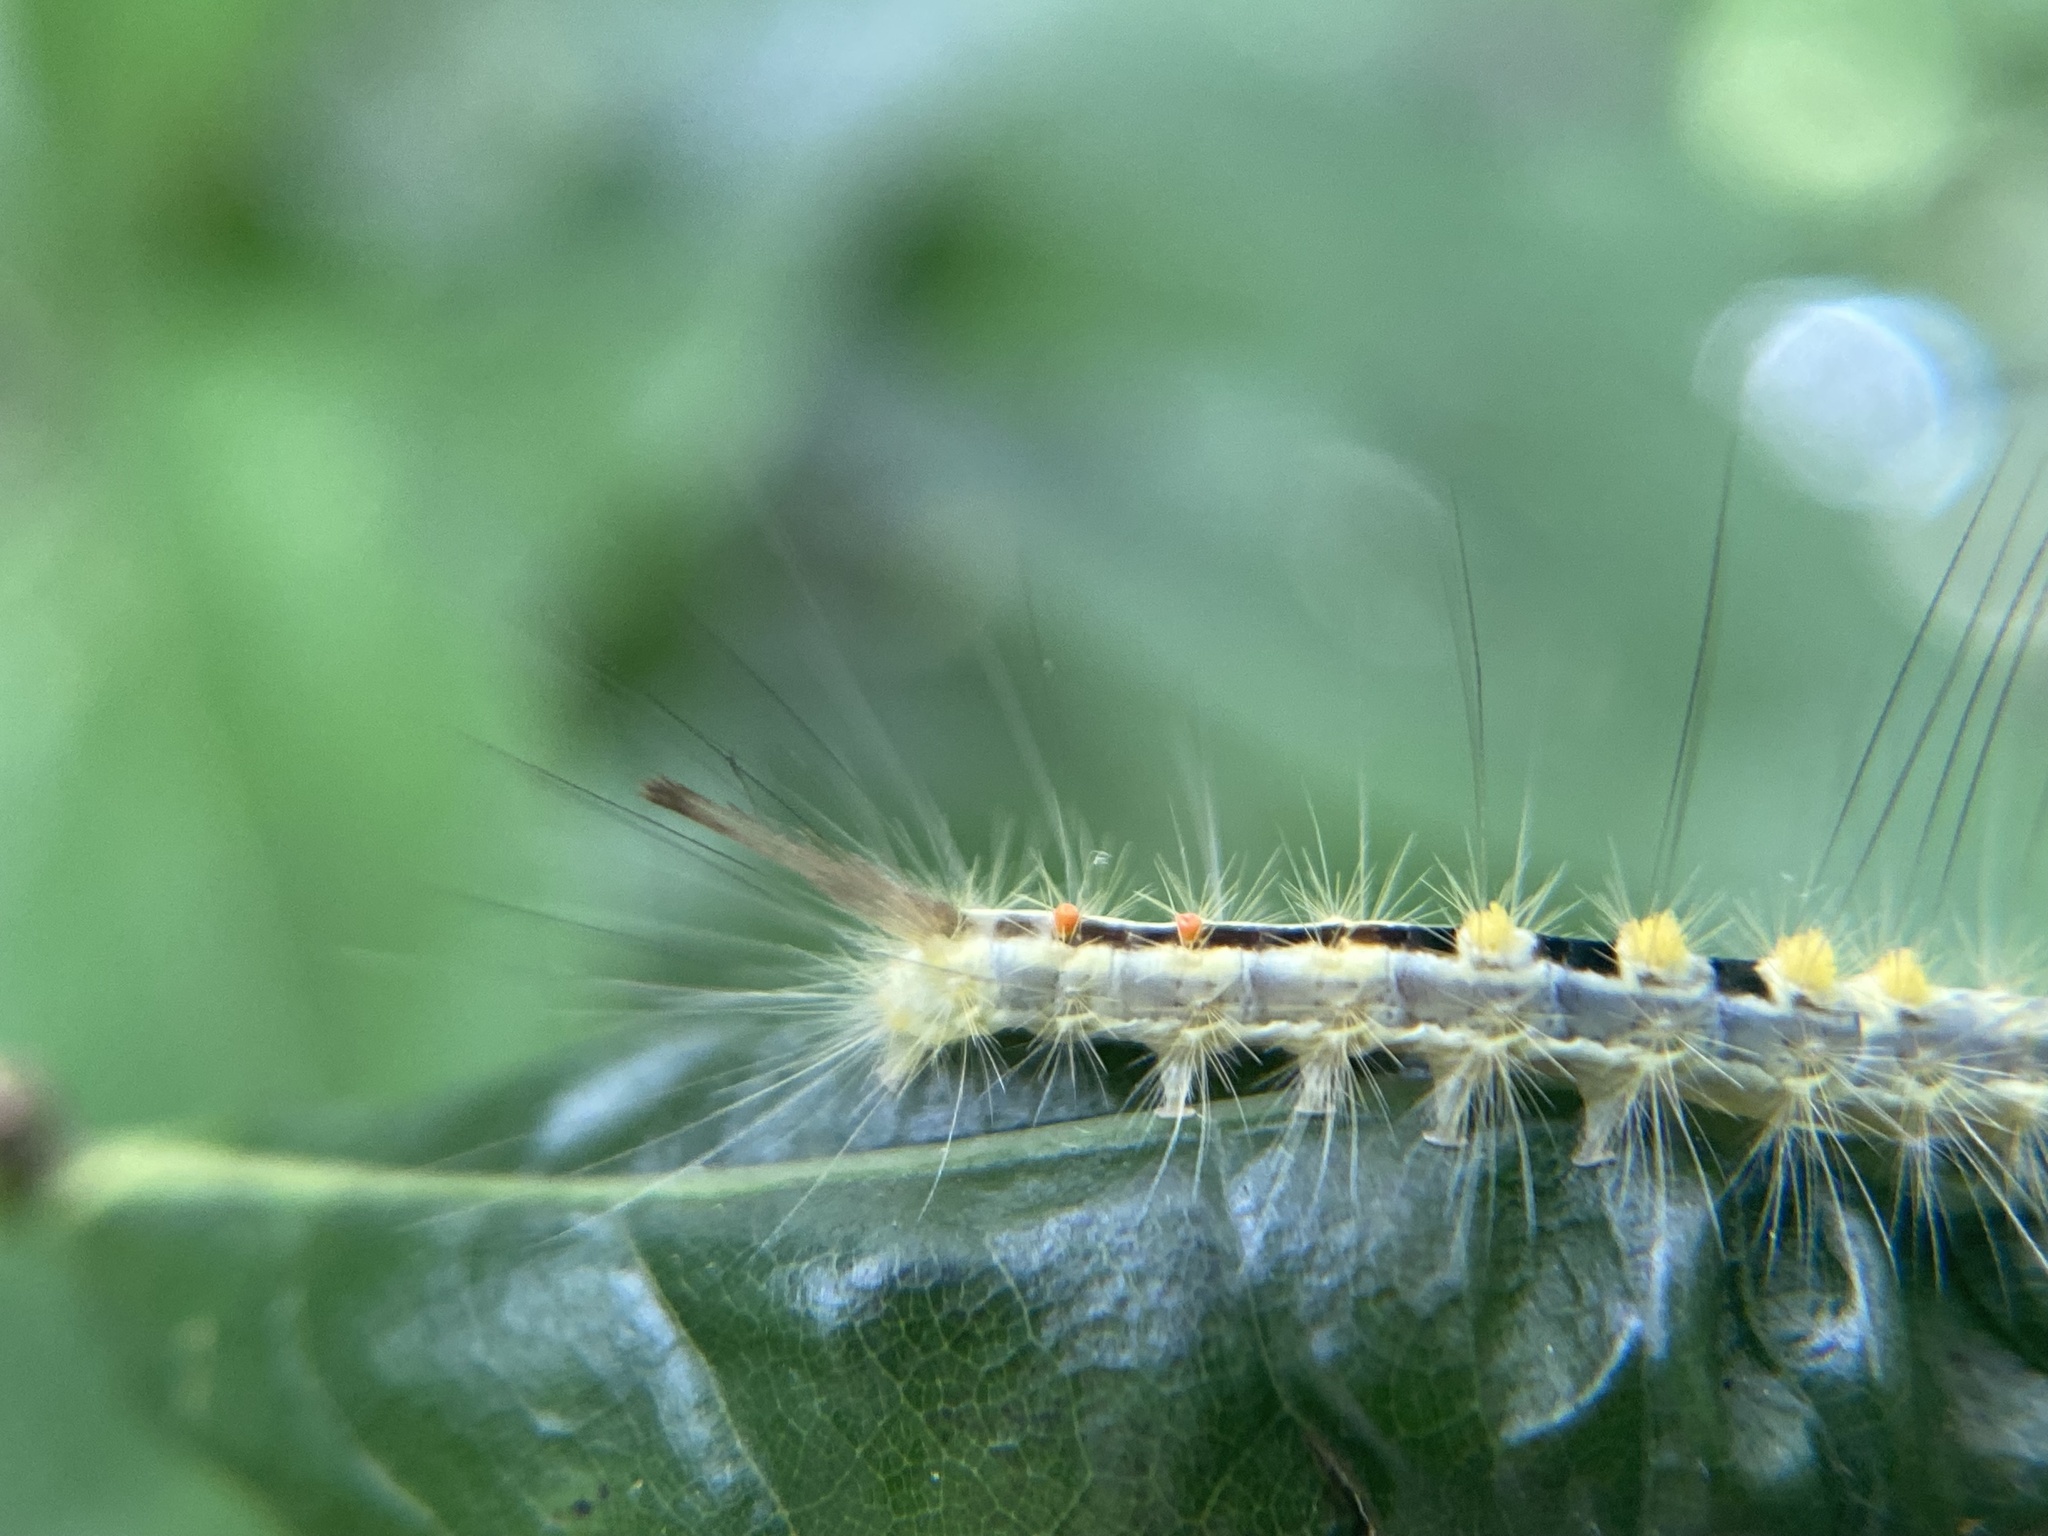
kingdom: Animalia
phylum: Arthropoda
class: Insecta
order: Lepidoptera
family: Erebidae
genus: Orgyia
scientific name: Orgyia leucostigma
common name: White-marked tussock moth
